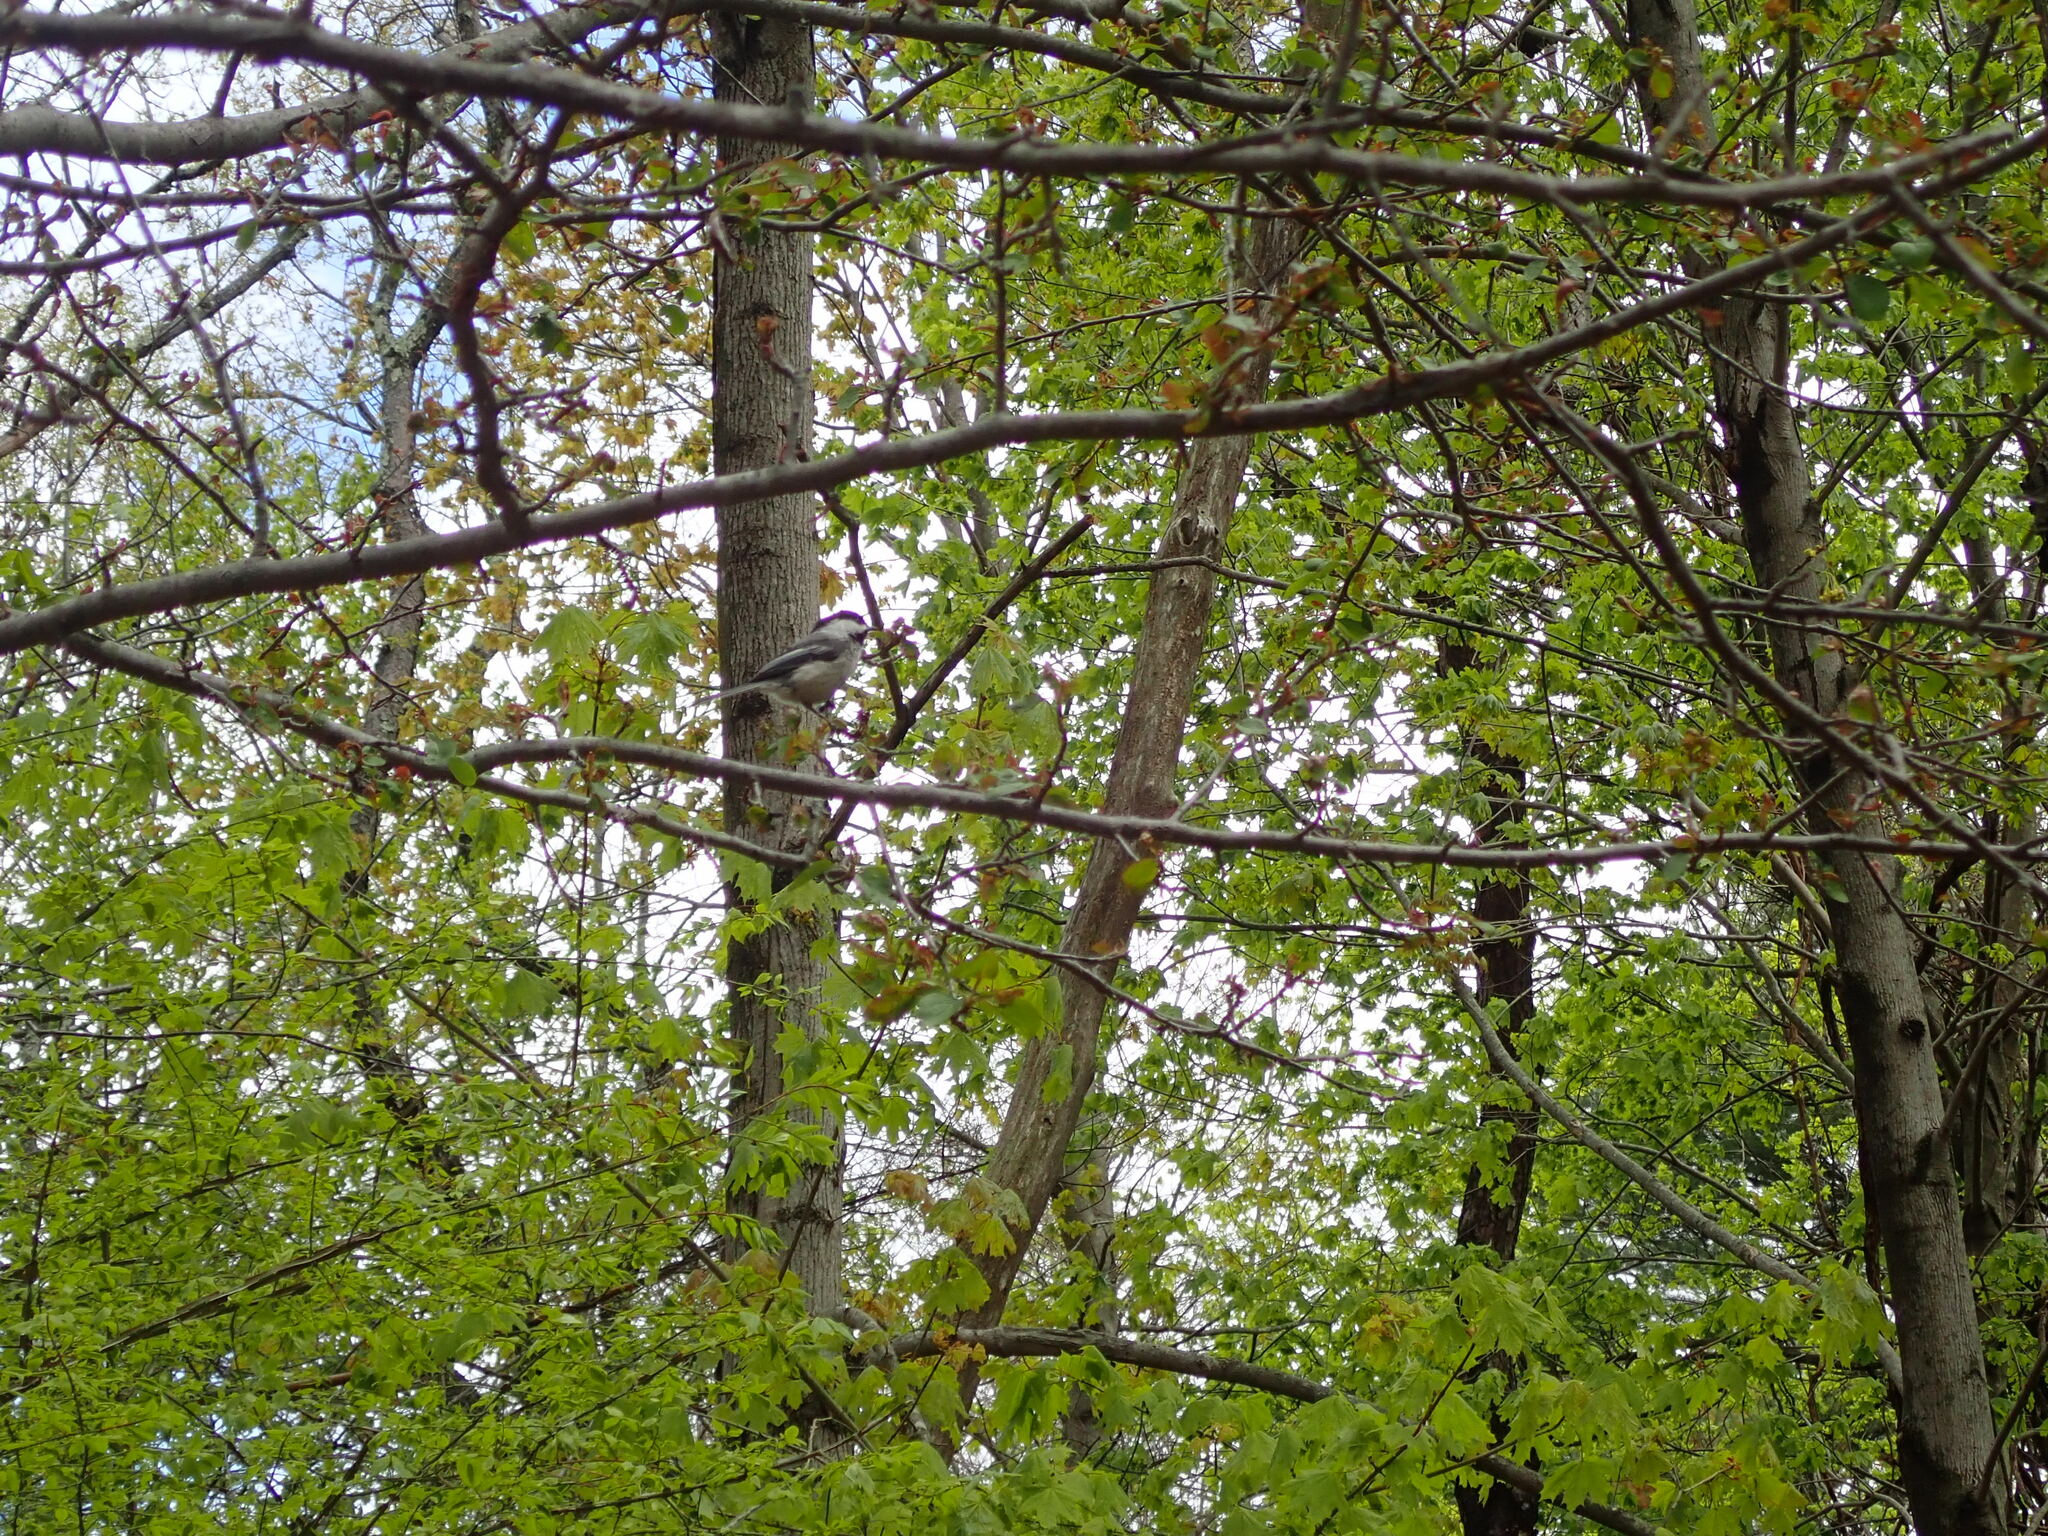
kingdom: Animalia
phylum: Chordata
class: Aves
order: Passeriformes
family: Paridae
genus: Poecile
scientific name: Poecile atricapillus
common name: Black-capped chickadee
